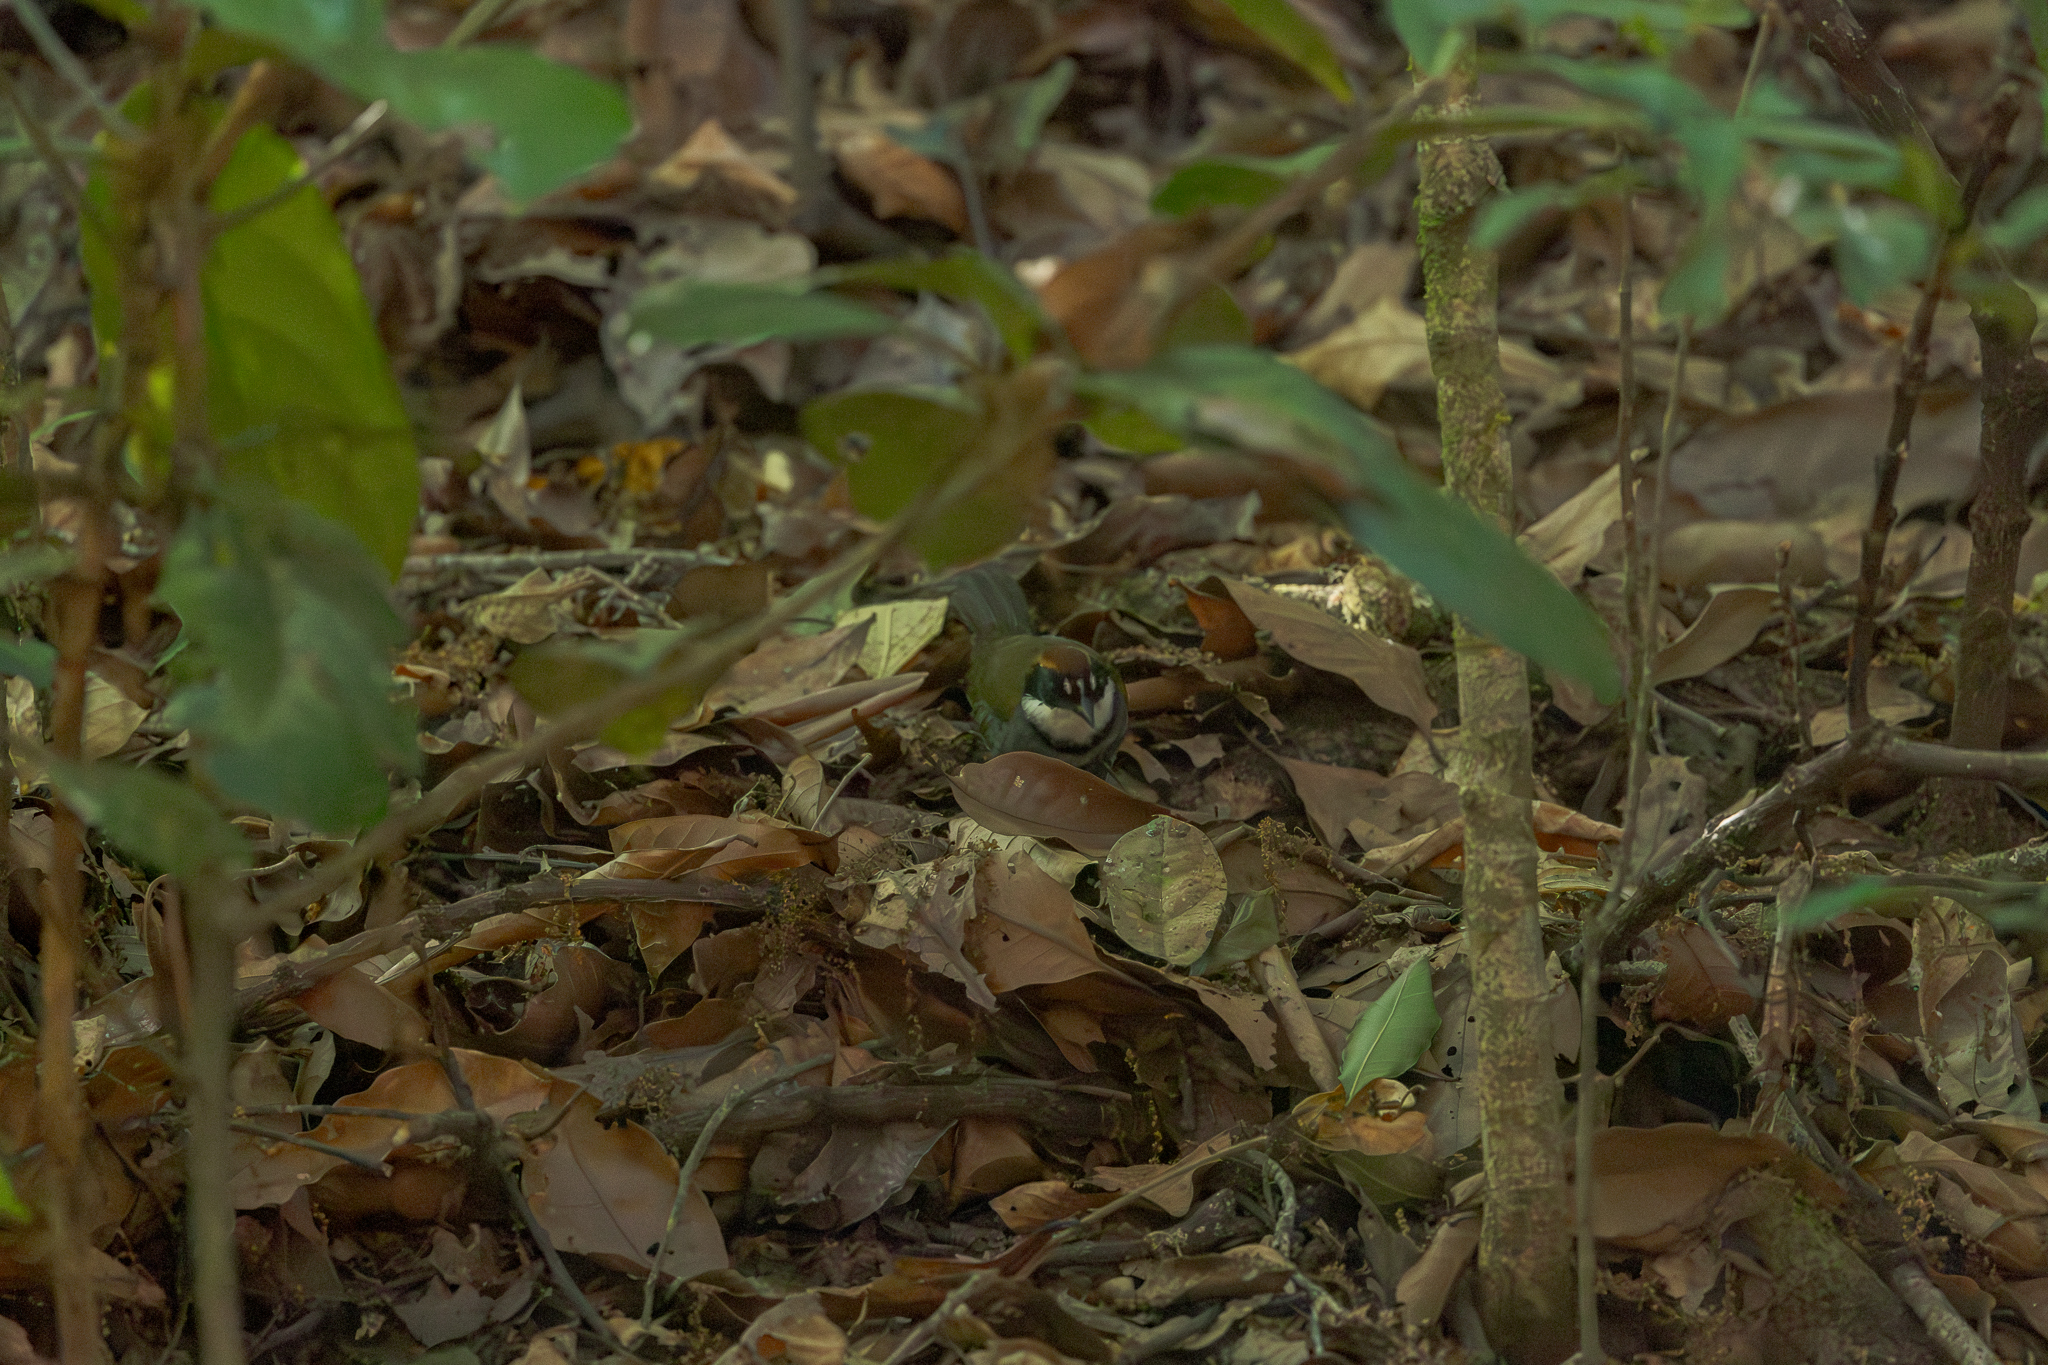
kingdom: Animalia
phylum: Chordata
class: Aves
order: Passeriformes
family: Passerellidae
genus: Arremon
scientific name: Arremon brunneinucha
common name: Chestnut-capped brushfinch
